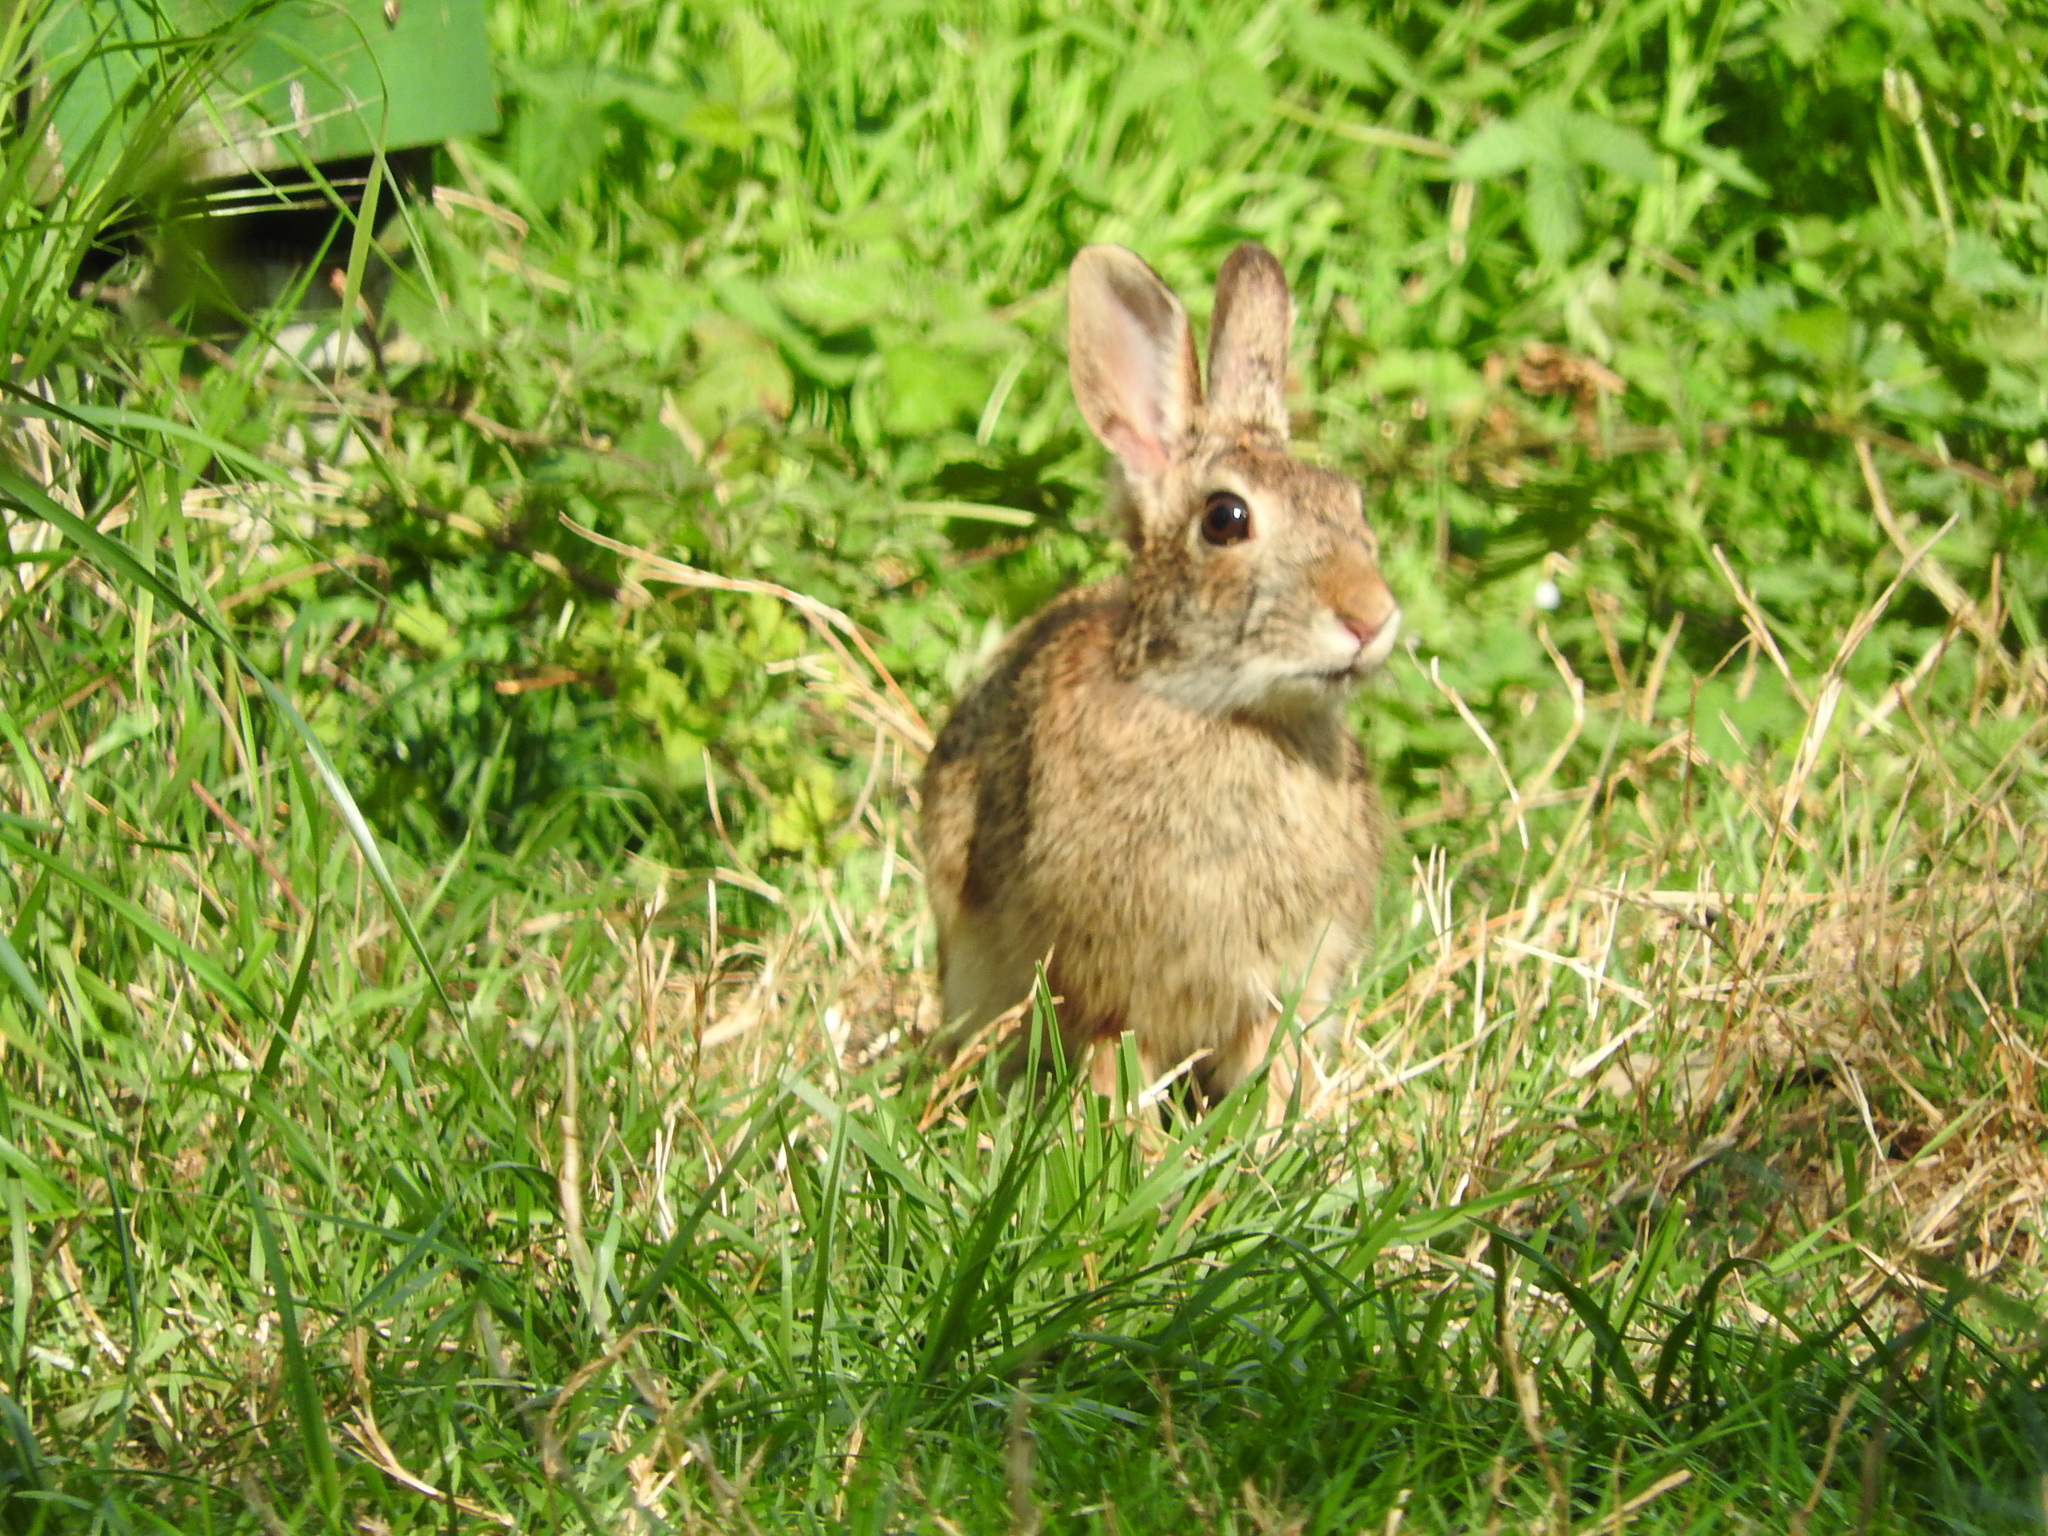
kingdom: Animalia
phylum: Chordata
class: Mammalia
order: Lagomorpha
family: Leporidae
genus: Sylvilagus
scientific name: Sylvilagus floridanus
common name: Eastern cottontail
